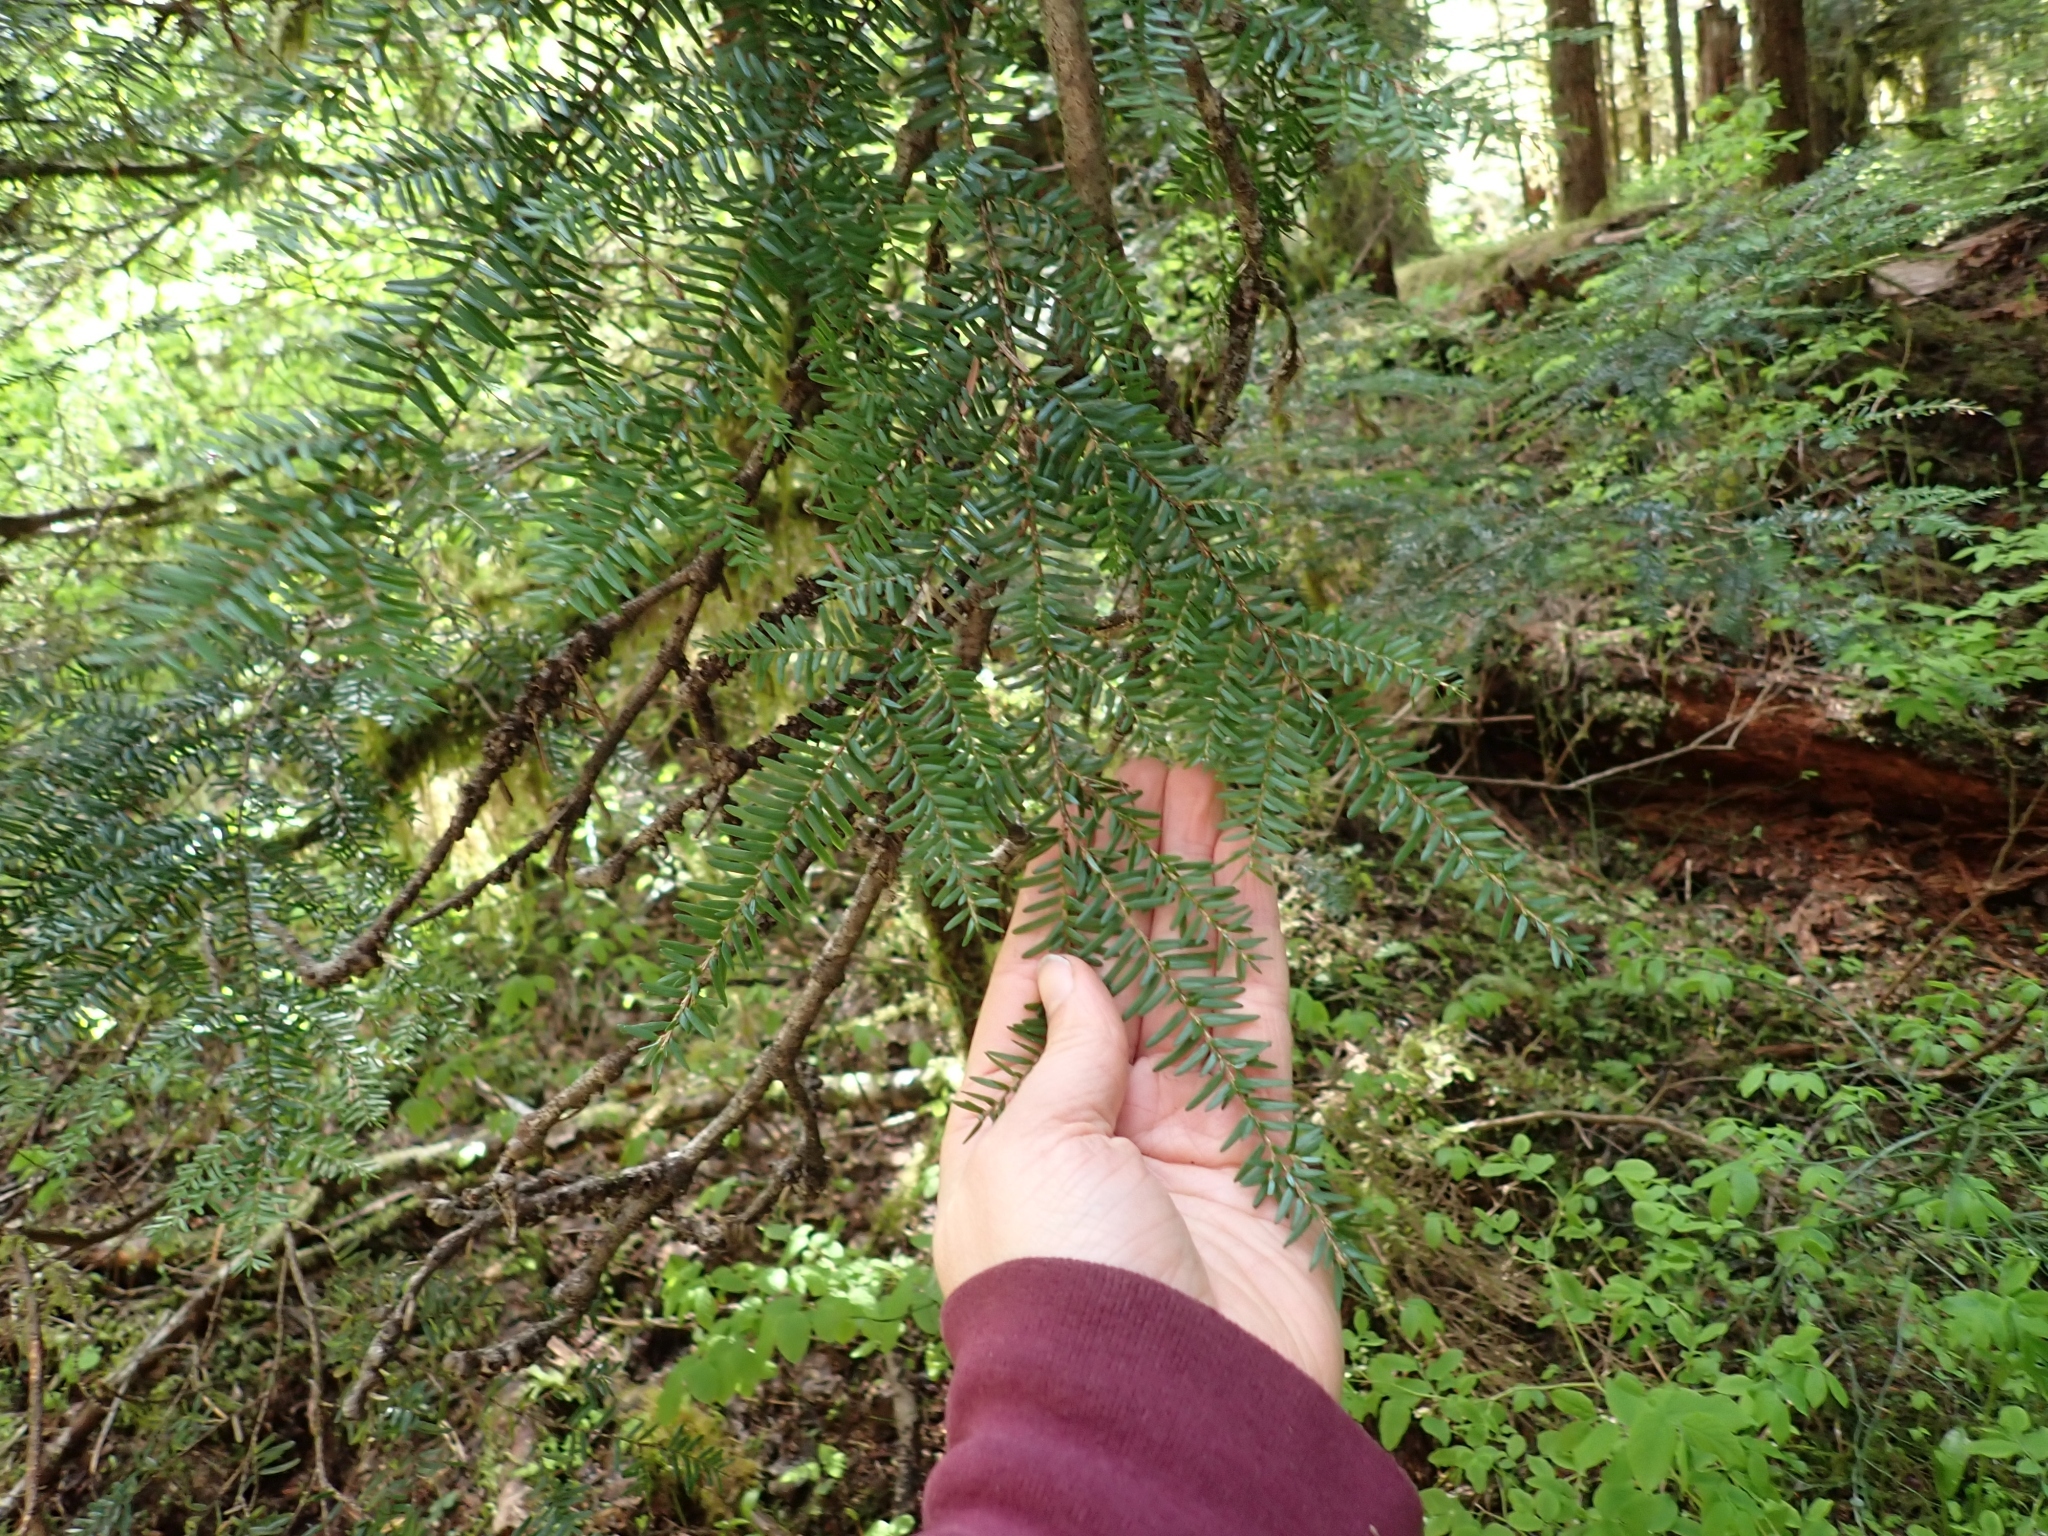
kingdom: Plantae
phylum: Tracheophyta
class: Pinopsida
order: Pinales
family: Pinaceae
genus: Tsuga
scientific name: Tsuga heterophylla
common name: Western hemlock
